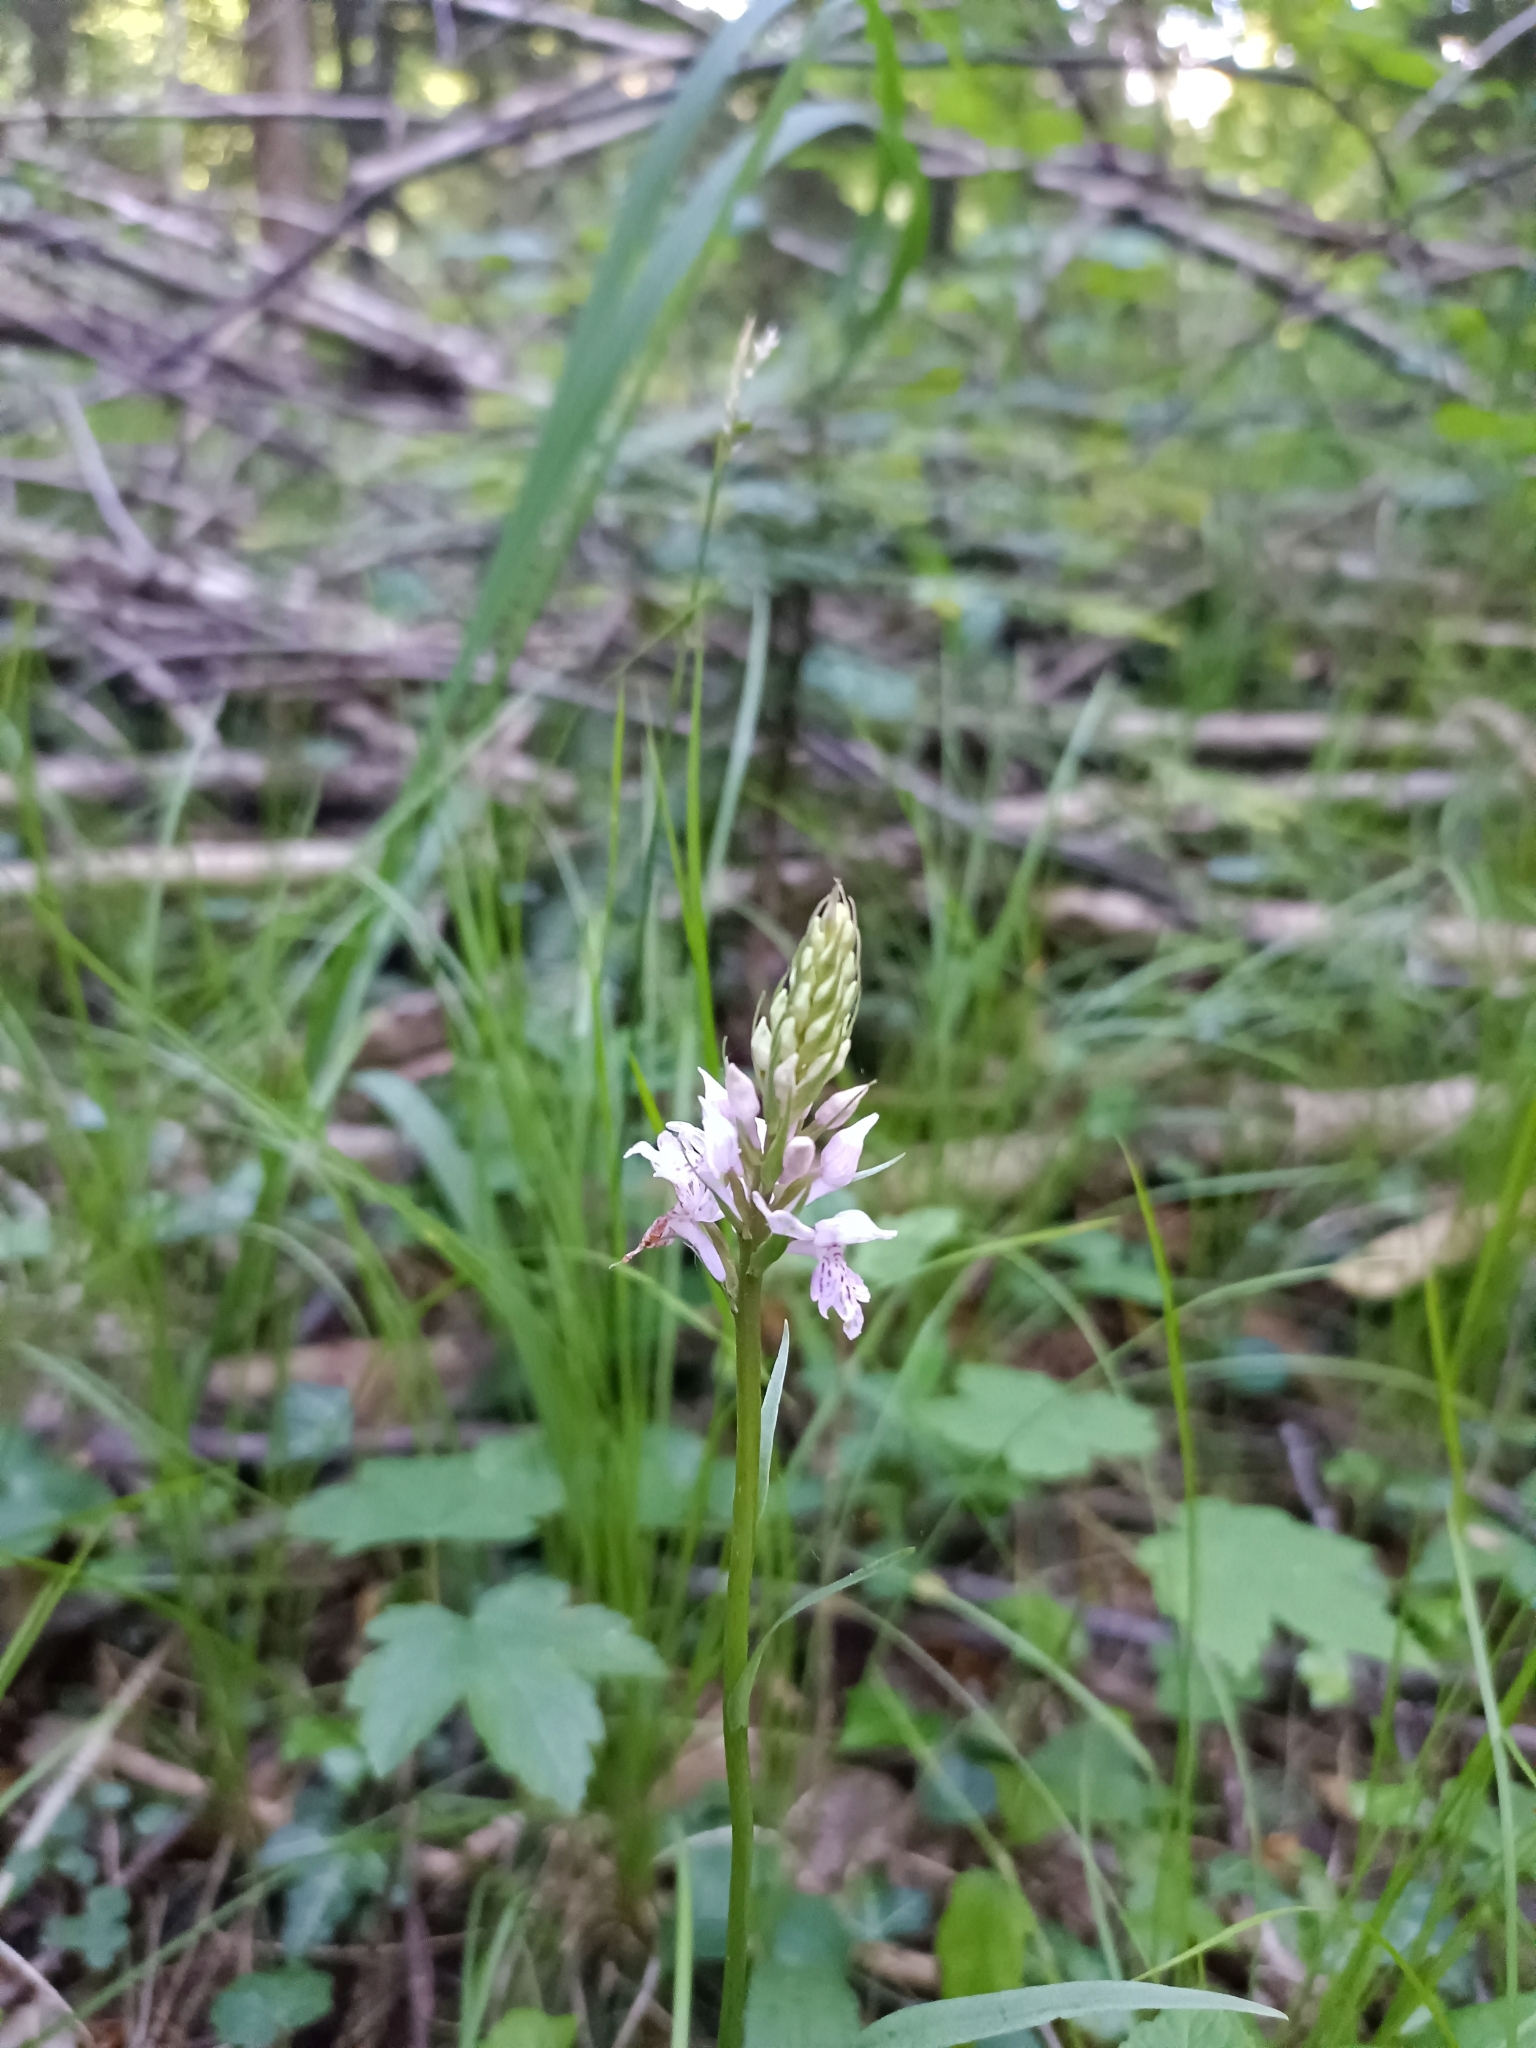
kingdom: Plantae
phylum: Tracheophyta
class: Liliopsida
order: Asparagales
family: Orchidaceae
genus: Dactylorhiza
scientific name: Dactylorhiza maculata
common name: Heath spotted-orchid
